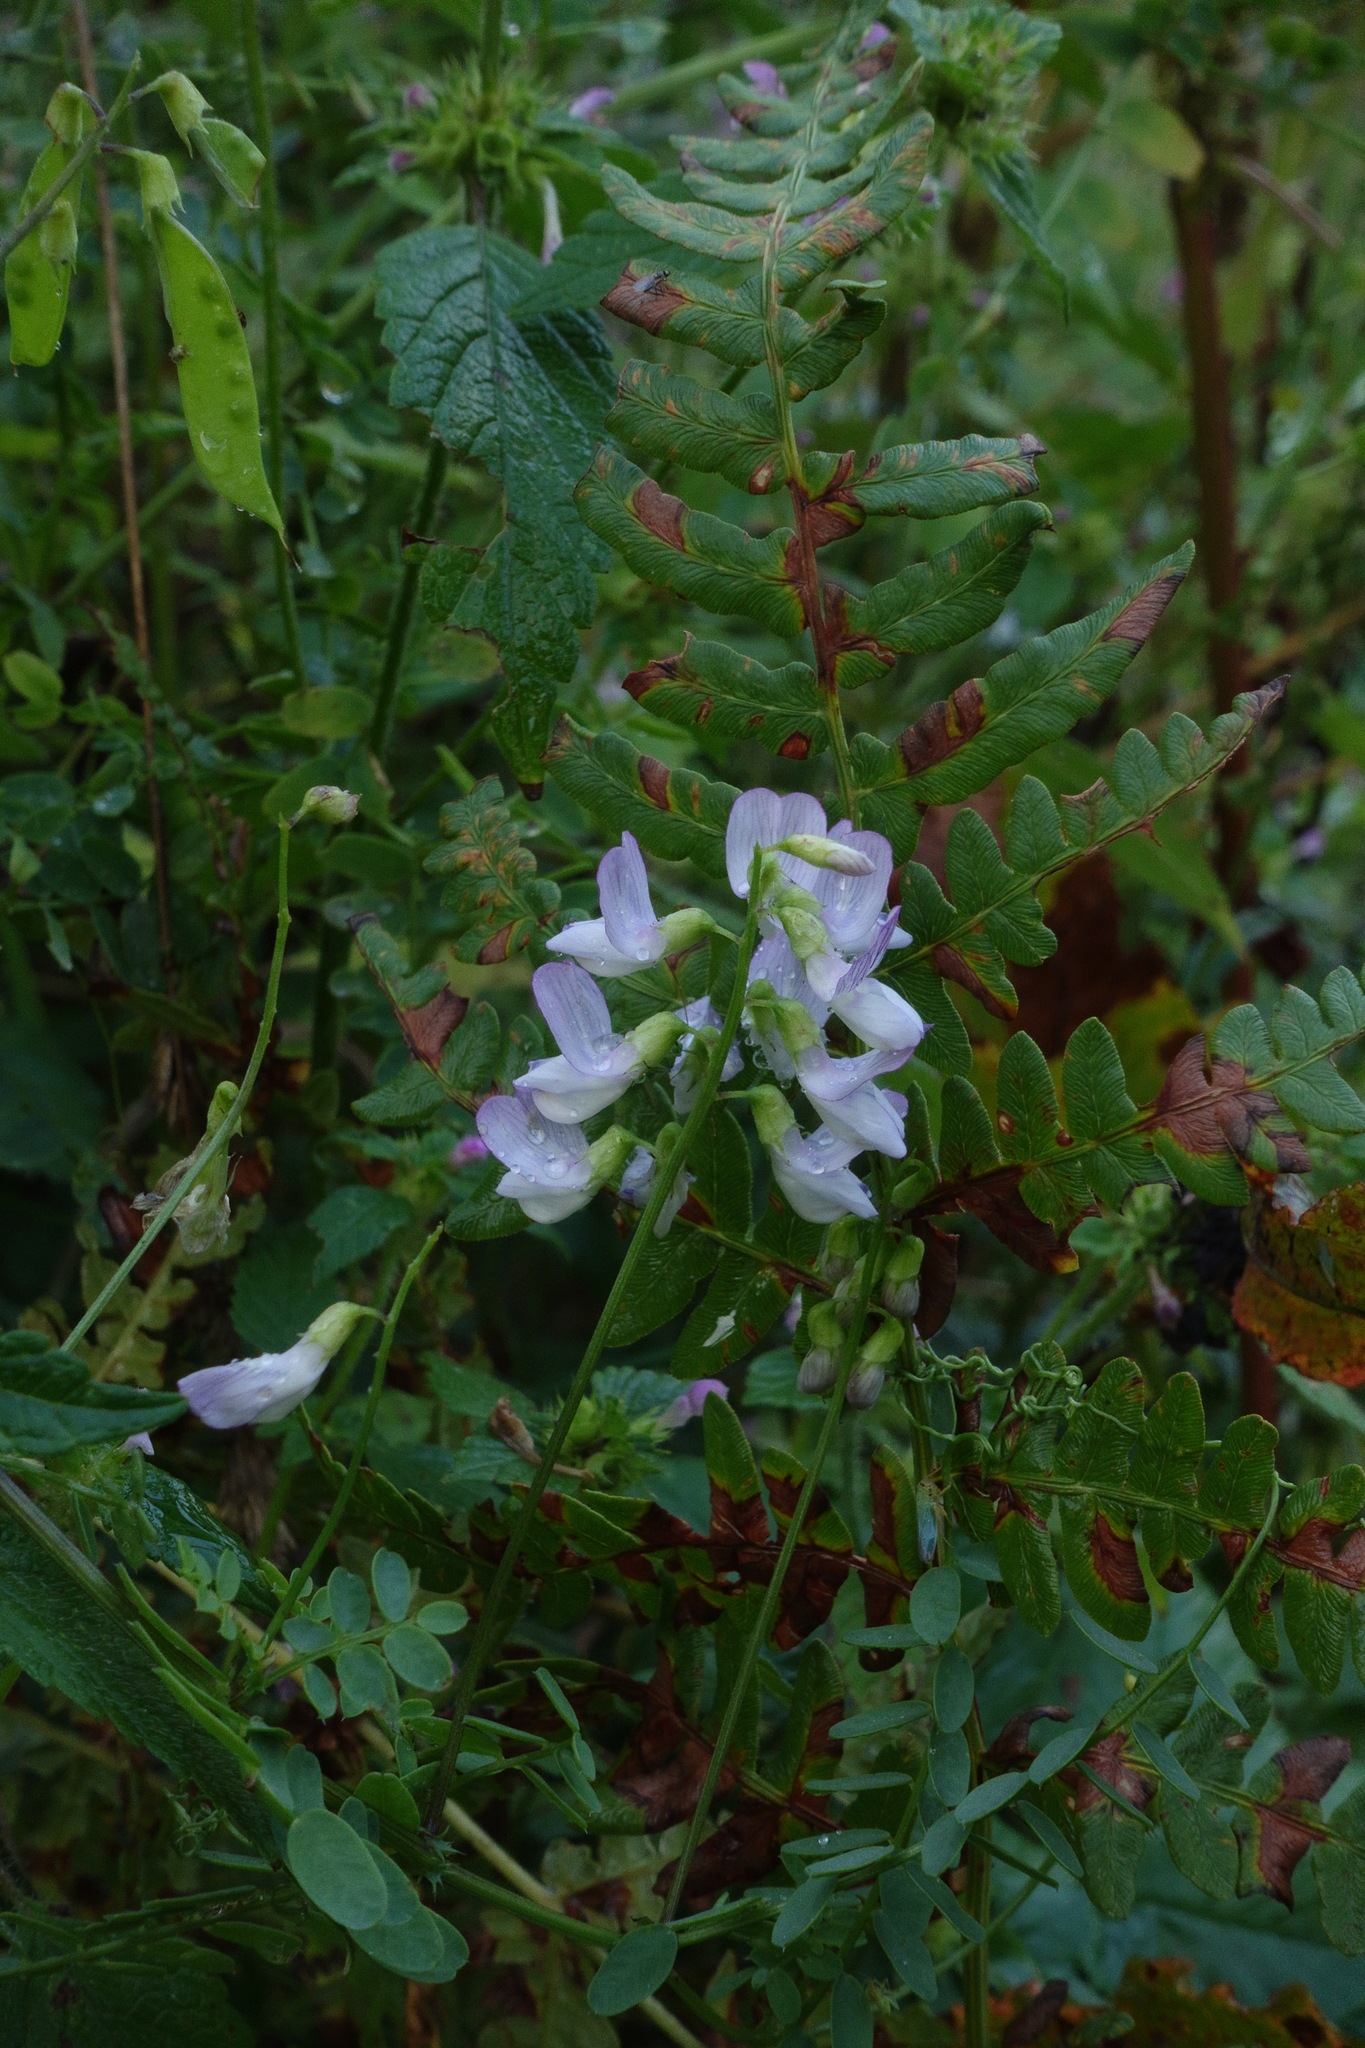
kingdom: Plantae
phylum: Tracheophyta
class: Magnoliopsida
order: Fabales
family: Fabaceae
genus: Vicia
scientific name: Vicia sylvatica
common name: Wood vetch
